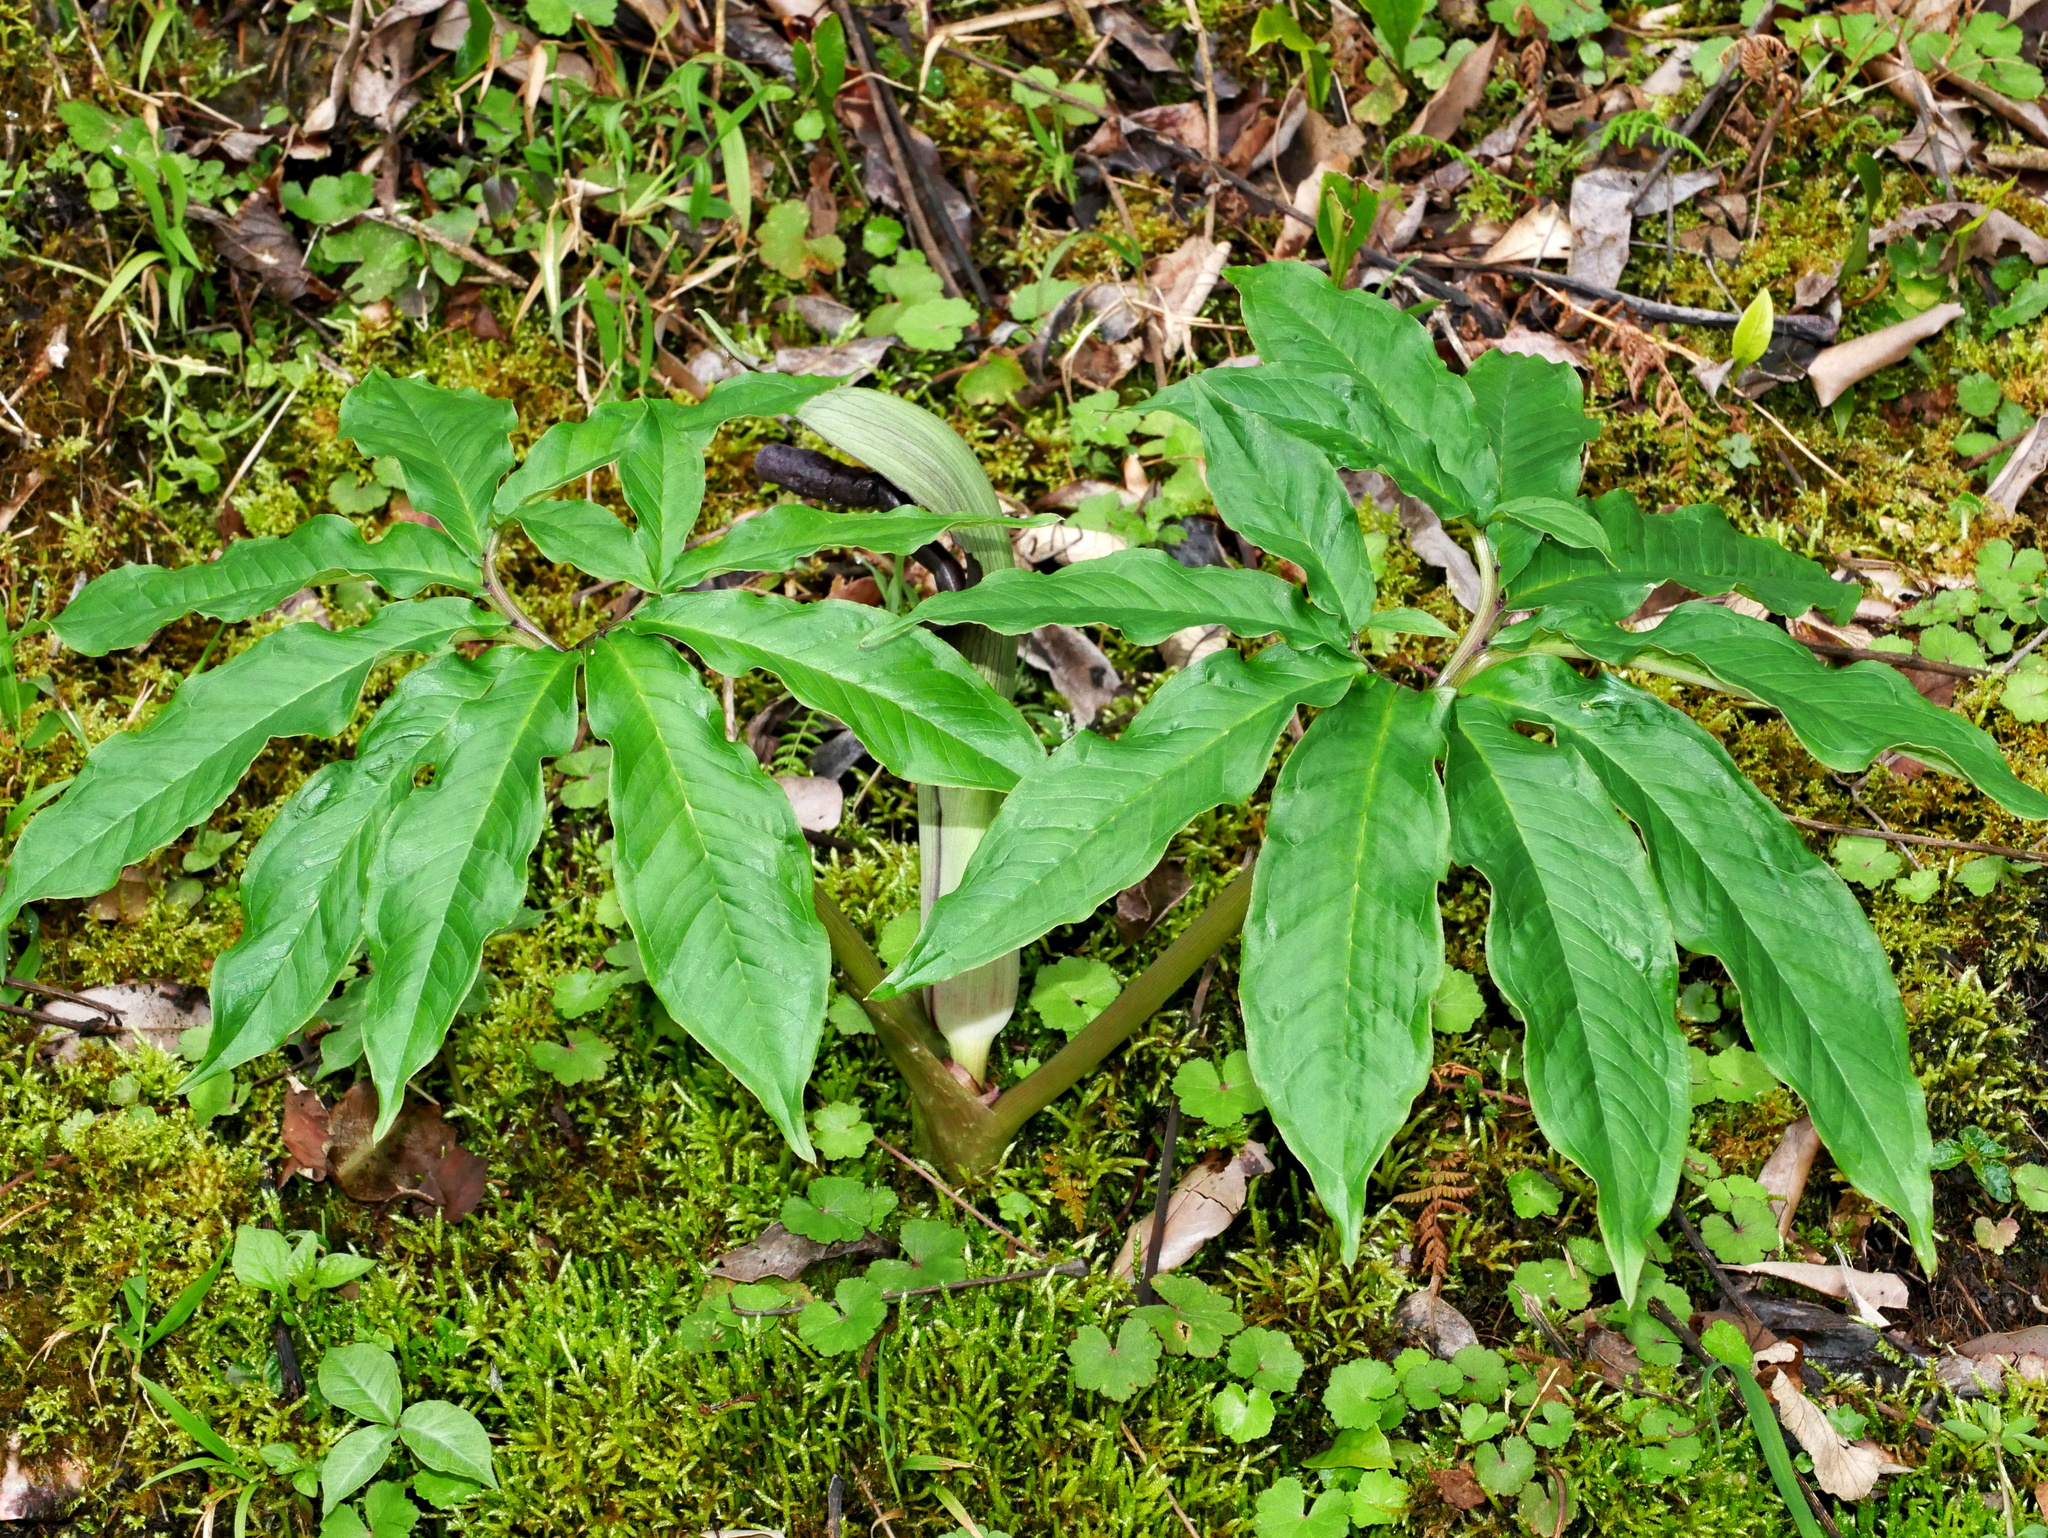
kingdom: Plantae
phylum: Tracheophyta
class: Liliopsida
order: Alismatales
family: Araceae
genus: Arisaema
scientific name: Arisaema ilanense
